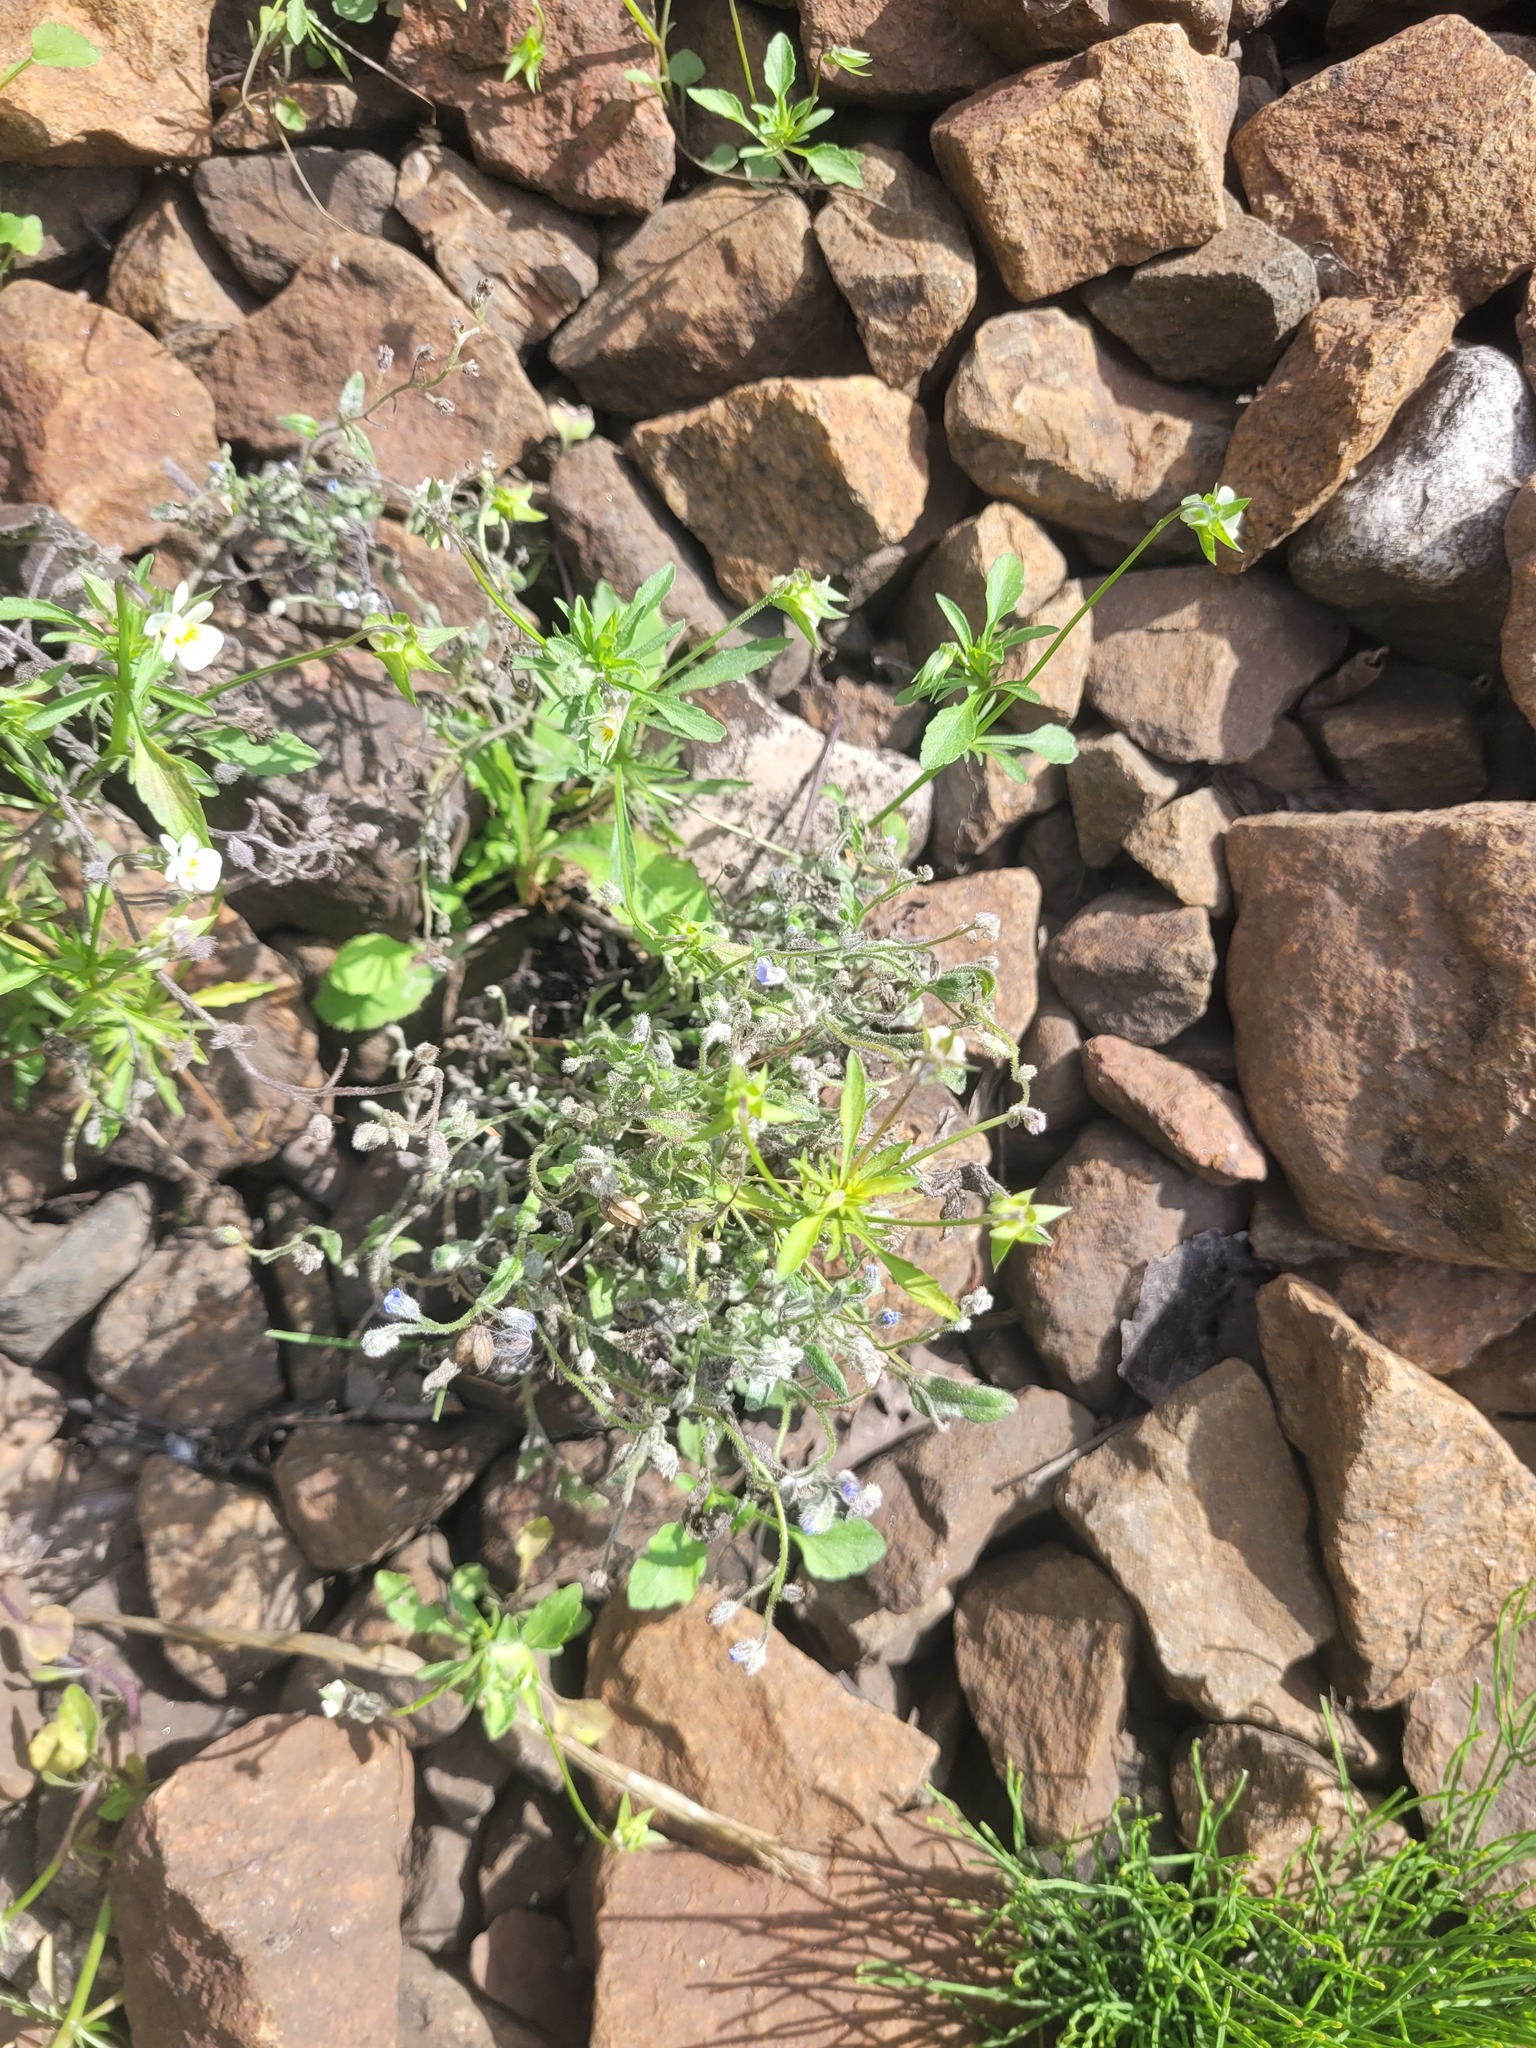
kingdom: Plantae
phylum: Tracheophyta
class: Magnoliopsida
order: Boraginales
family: Boraginaceae
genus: Myosotis
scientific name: Myosotis arvensis
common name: Field forget-me-not
